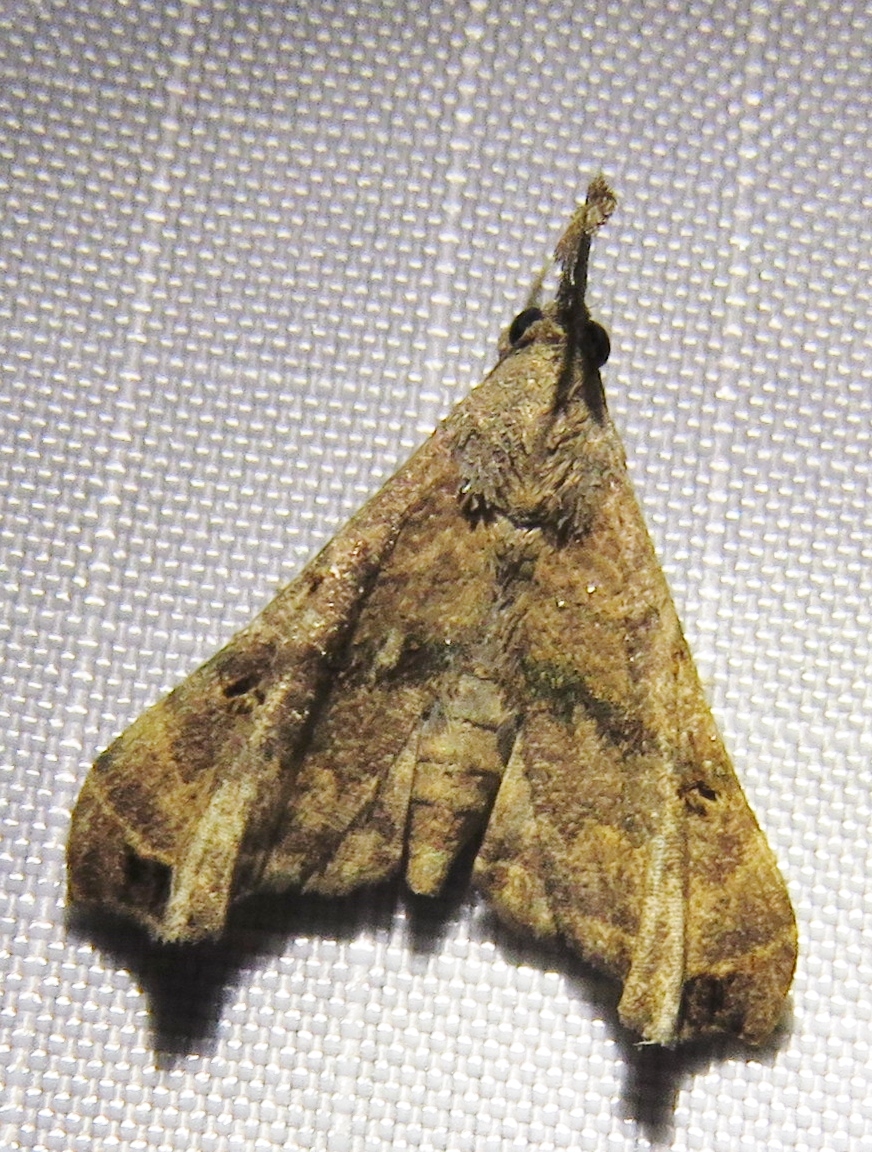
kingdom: Animalia
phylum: Arthropoda
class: Insecta
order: Lepidoptera
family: Erebidae
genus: Palthis
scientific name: Palthis asopialis
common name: Faint-spotted palthis moth
